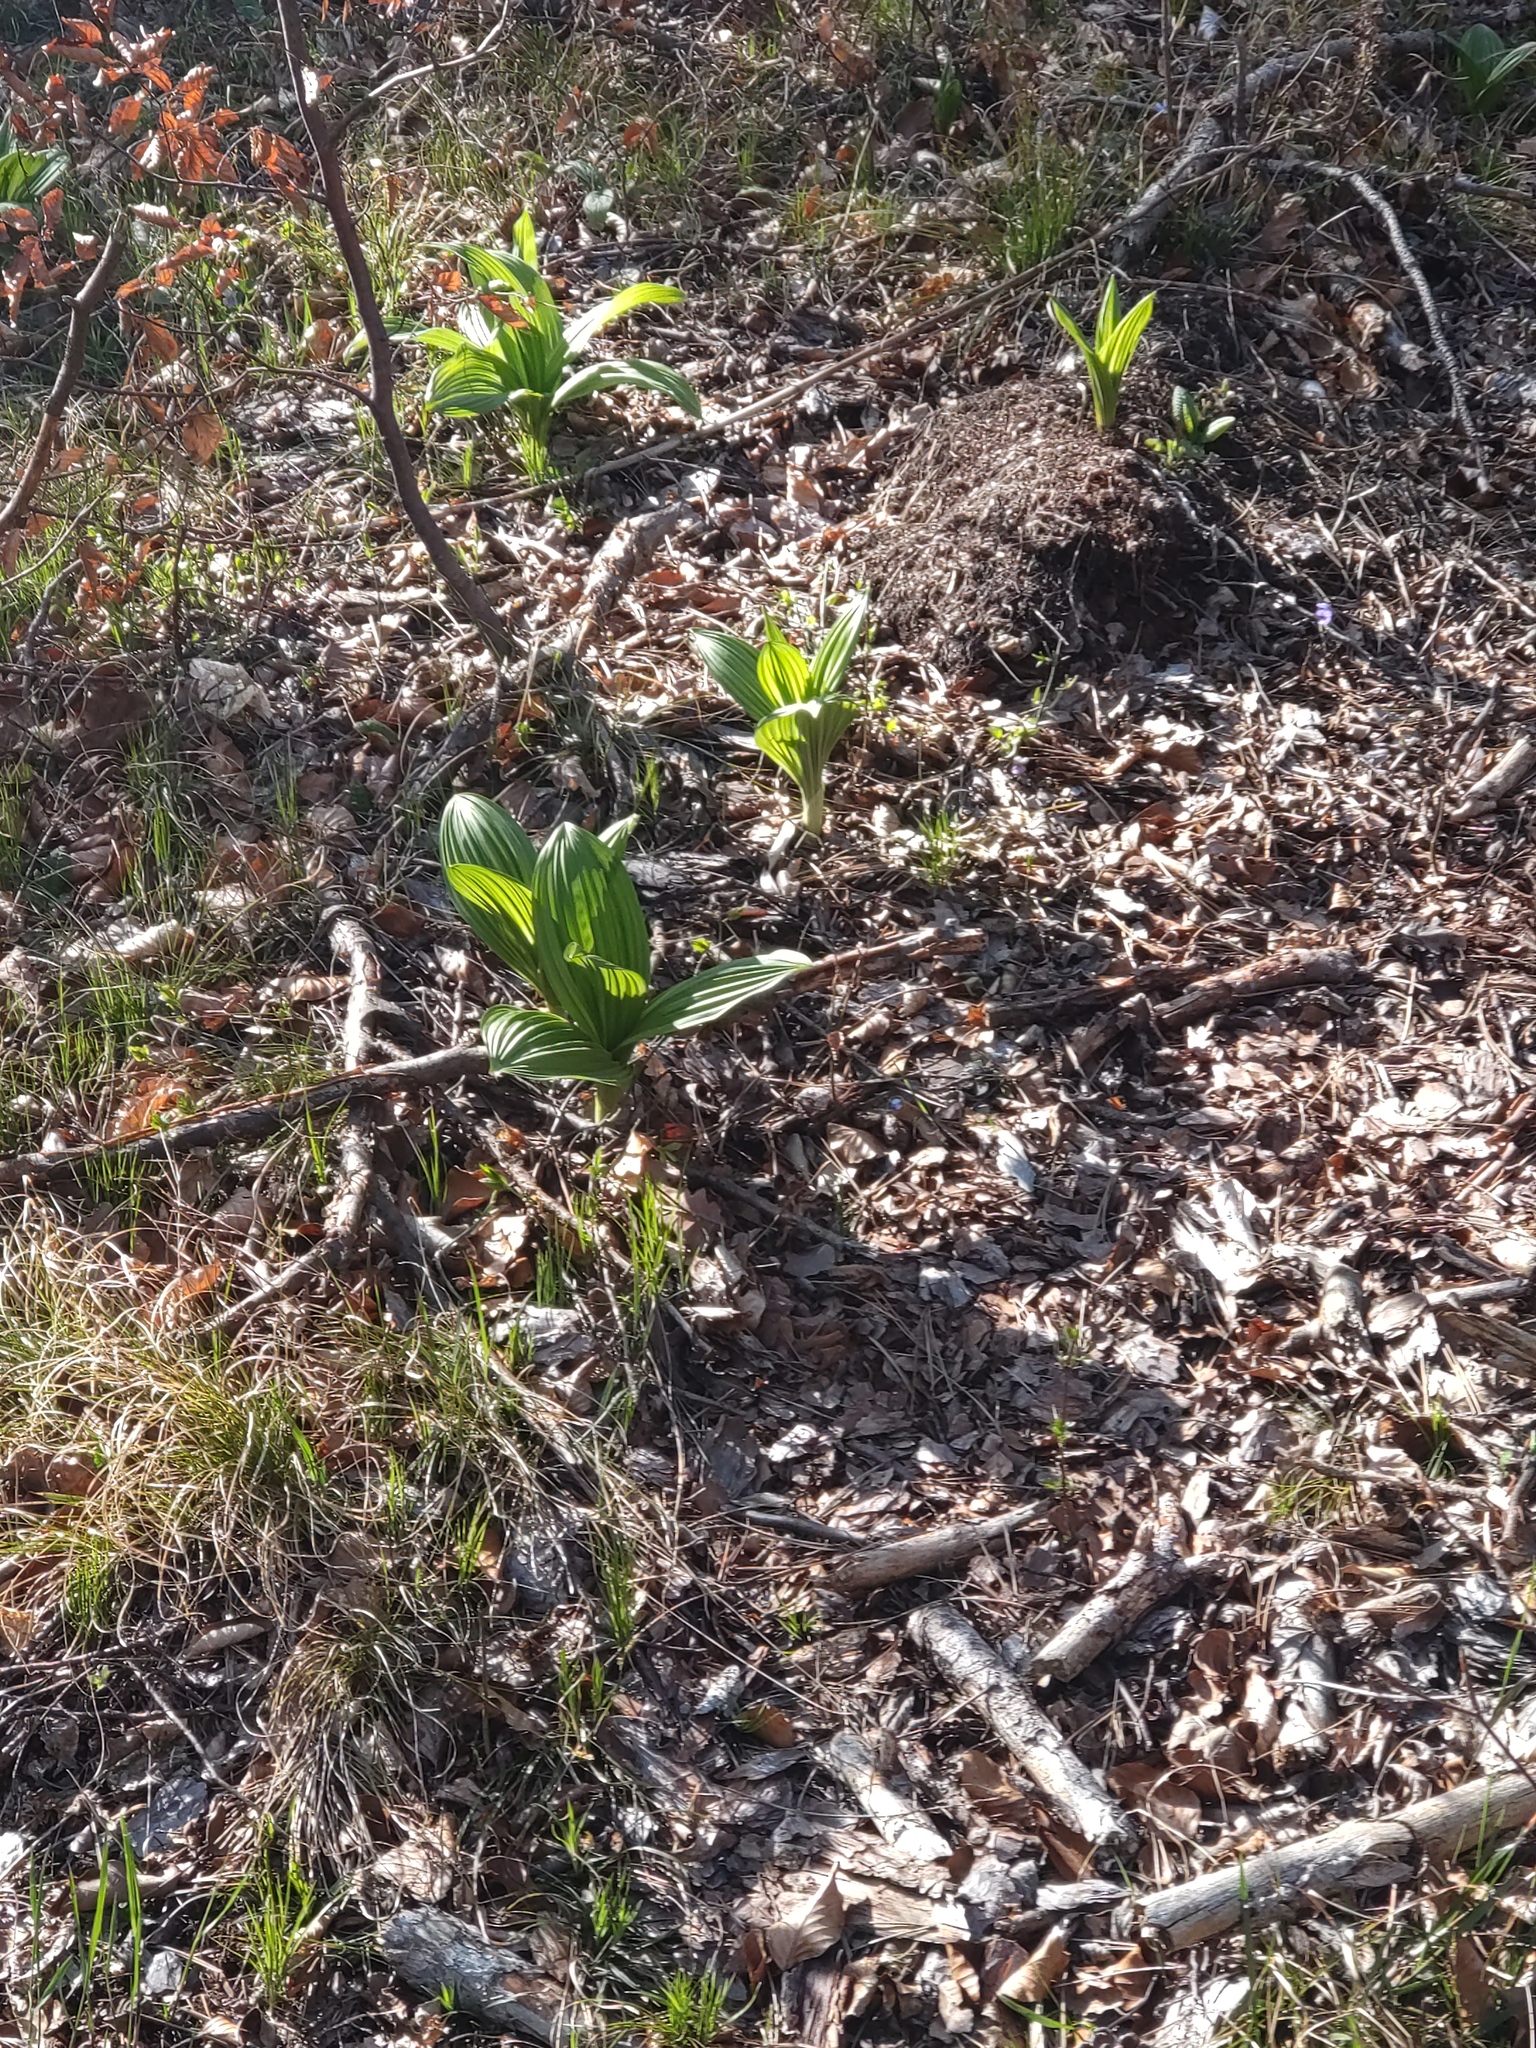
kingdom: Plantae
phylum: Tracheophyta
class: Liliopsida
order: Liliales
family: Melanthiaceae
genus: Veratrum
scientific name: Veratrum nigrum
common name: Black veratrum
